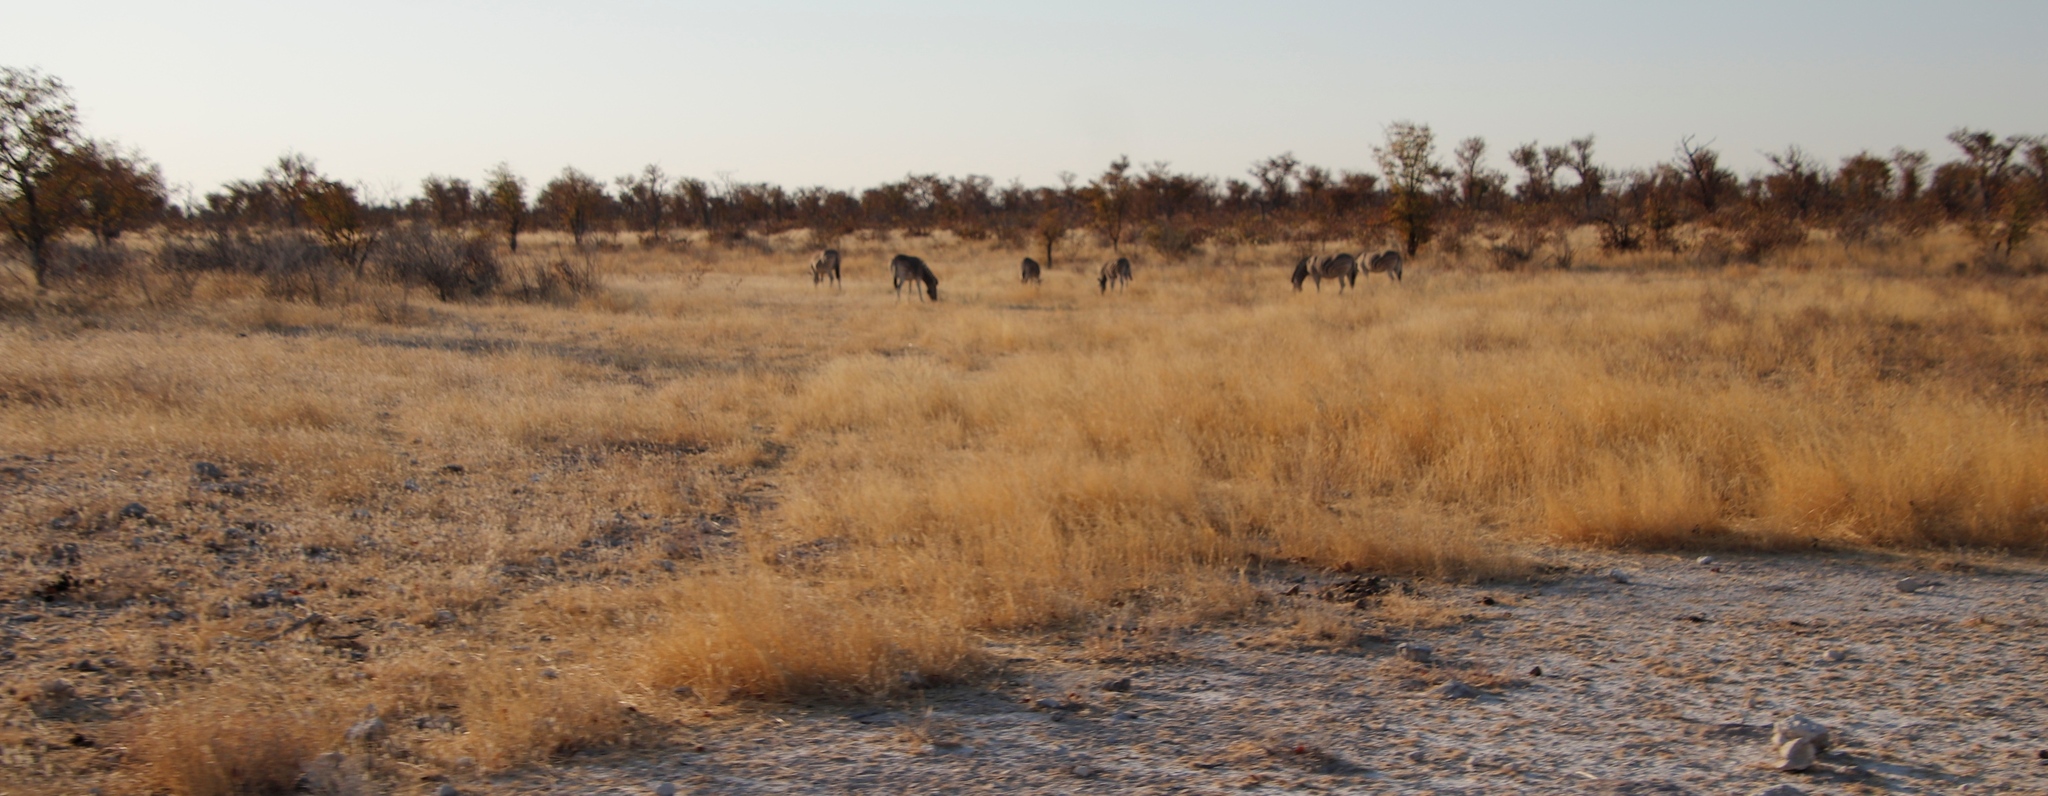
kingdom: Plantae
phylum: Tracheophyta
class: Magnoliopsida
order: Fabales
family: Fabaceae
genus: Colophospermum
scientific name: Colophospermum mopane
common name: Mopane
